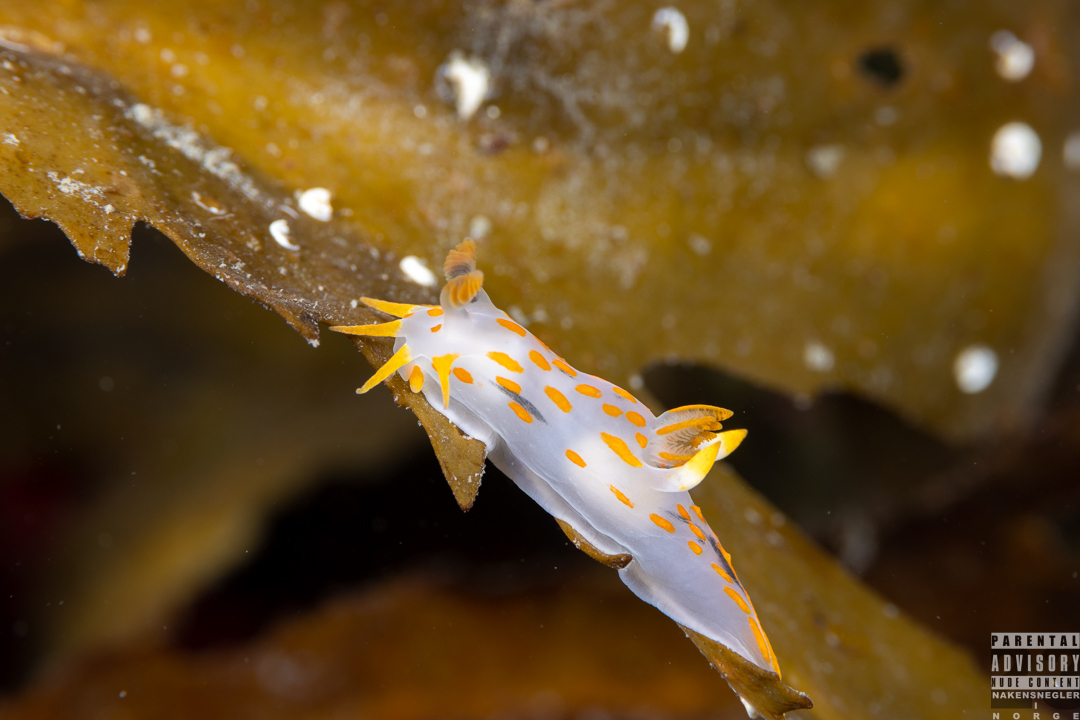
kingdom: Animalia
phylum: Mollusca
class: Gastropoda
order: Nudibranchia
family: Polyceridae
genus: Polycera
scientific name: Polycera quadrilineata
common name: Four-striped polycera
